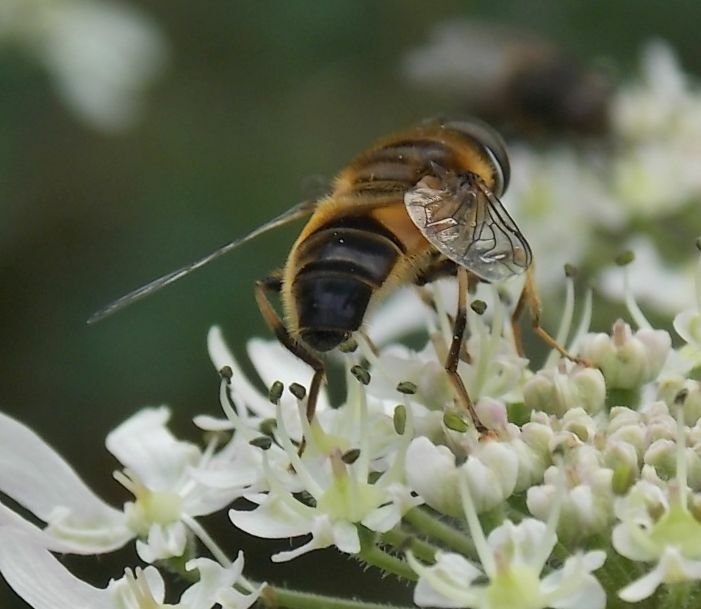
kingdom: Animalia
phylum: Arthropoda
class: Insecta
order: Diptera
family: Syrphidae
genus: Eristalis
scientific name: Eristalis pertinax
